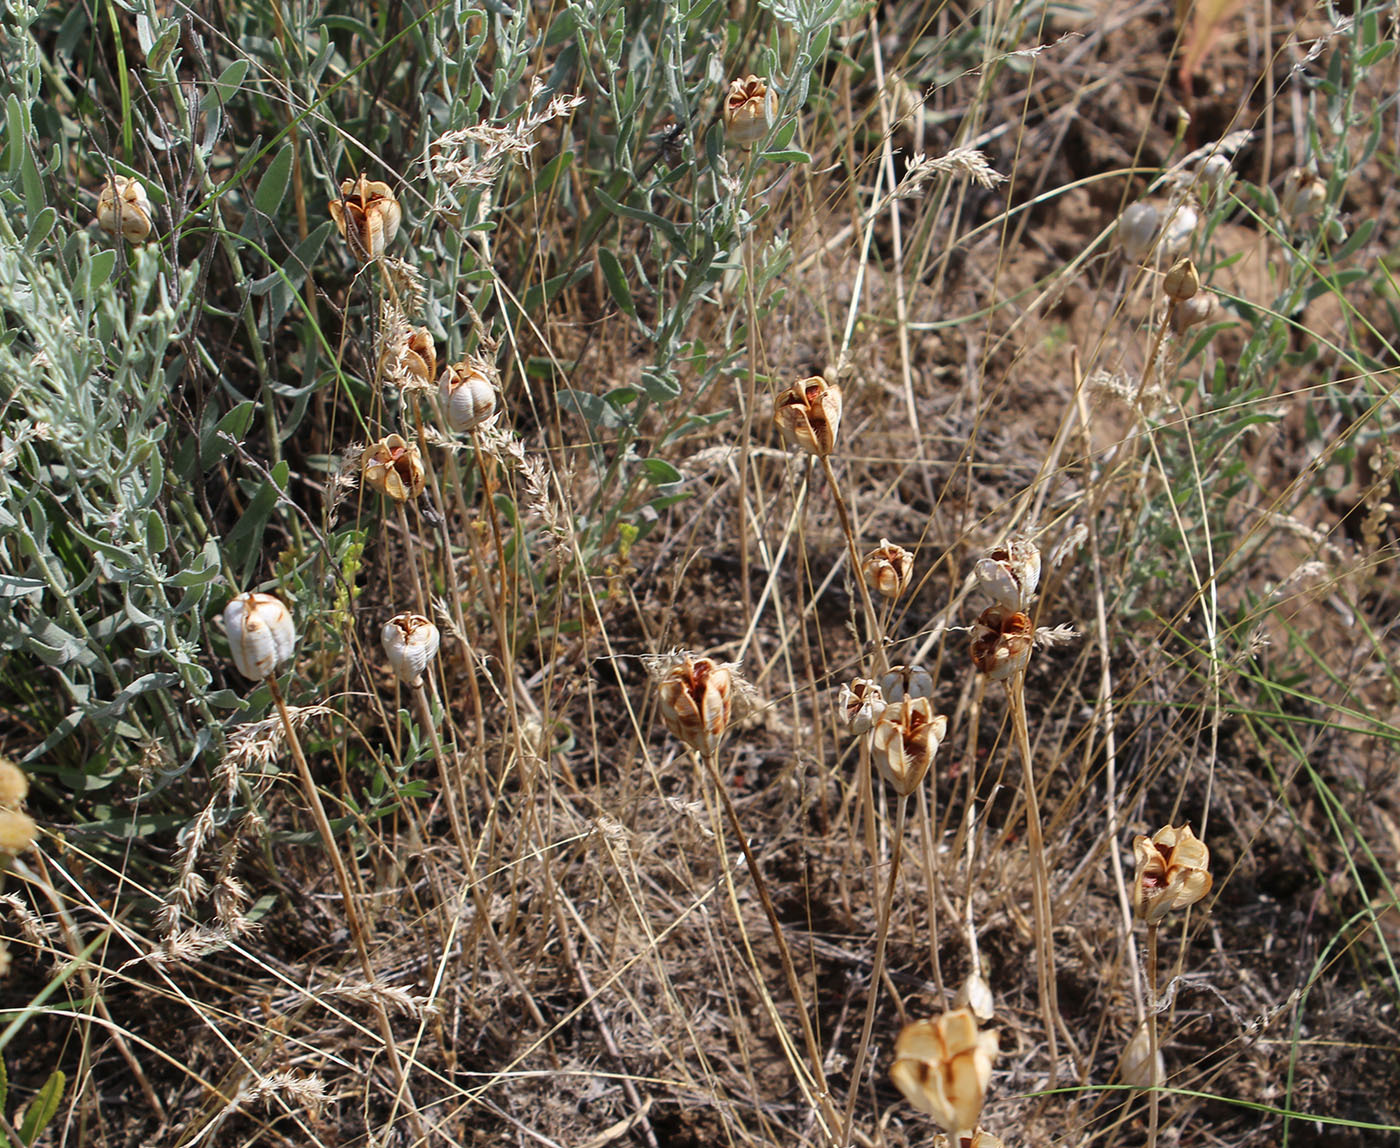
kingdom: Plantae
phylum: Tracheophyta
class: Liliopsida
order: Liliales
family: Liliaceae
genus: Tulipa
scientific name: Tulipa sylvestris
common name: Wild tulip
